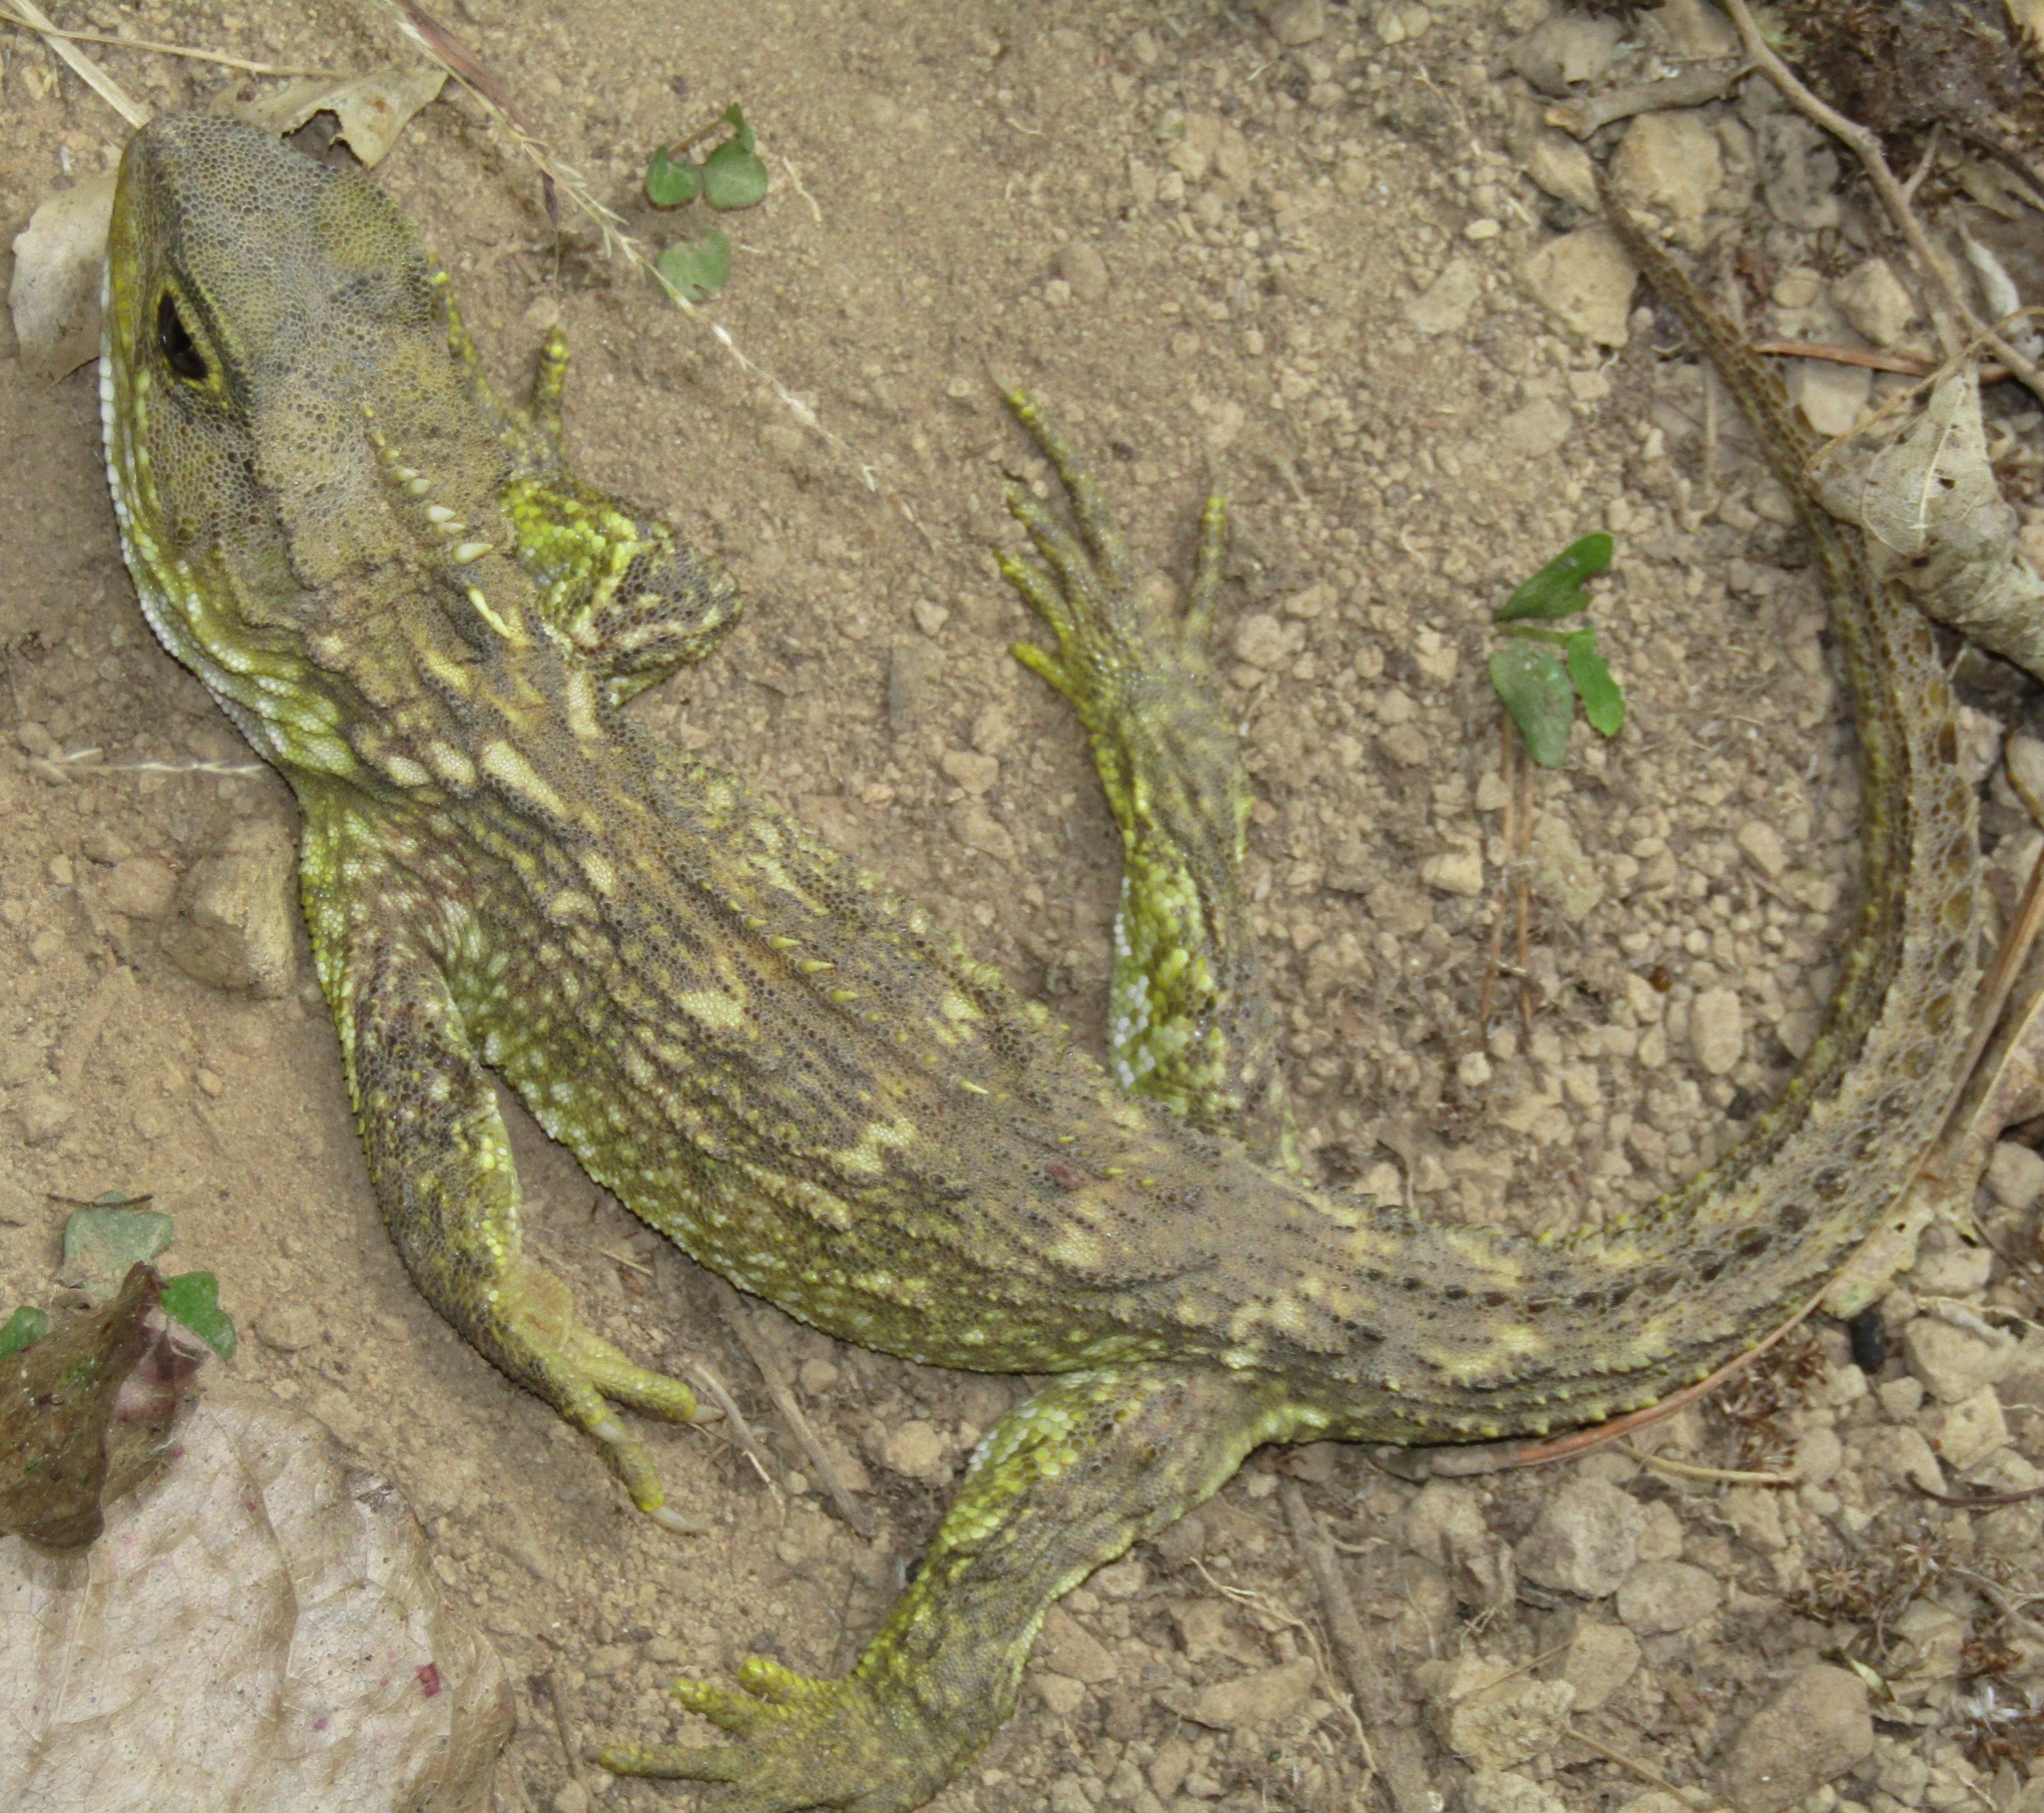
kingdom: Animalia
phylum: Chordata
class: Sphenodontia
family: Sphenodontidae
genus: Sphenodon
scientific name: Sphenodon punctatus
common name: Tuatara
